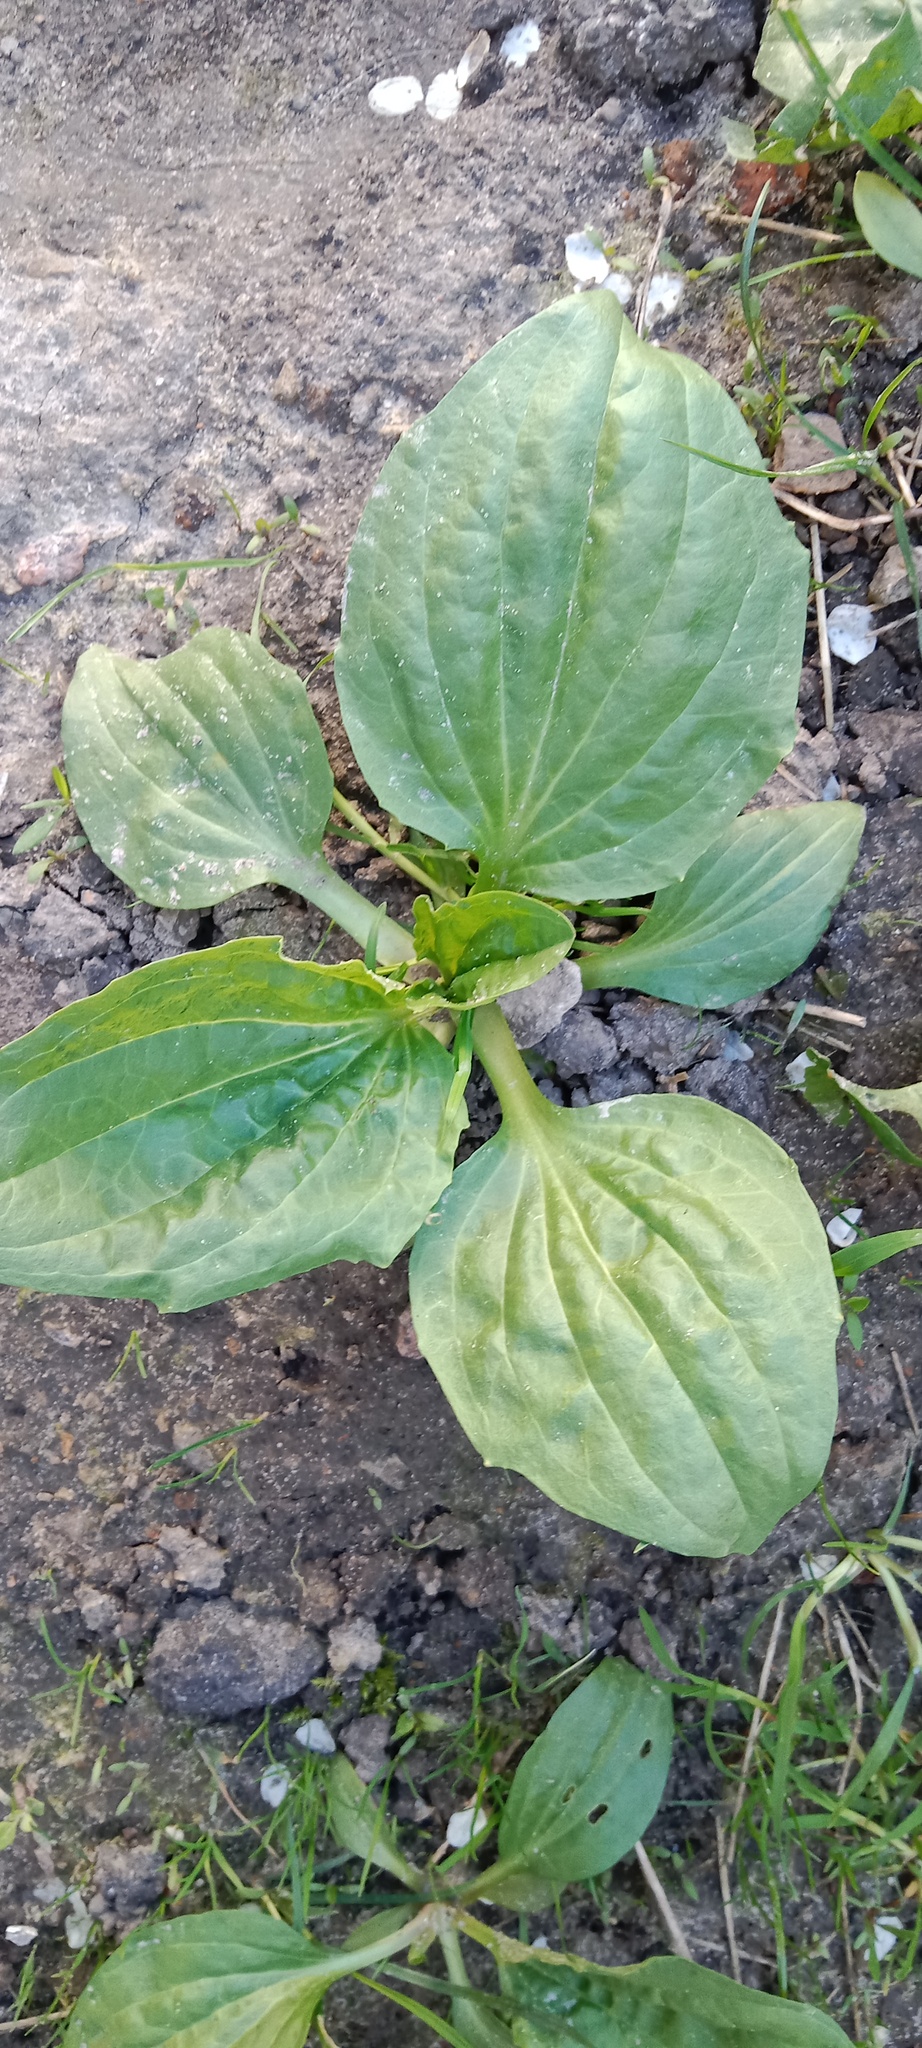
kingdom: Plantae
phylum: Tracheophyta
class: Magnoliopsida
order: Lamiales
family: Plantaginaceae
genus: Plantago
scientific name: Plantago major
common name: Common plantain
